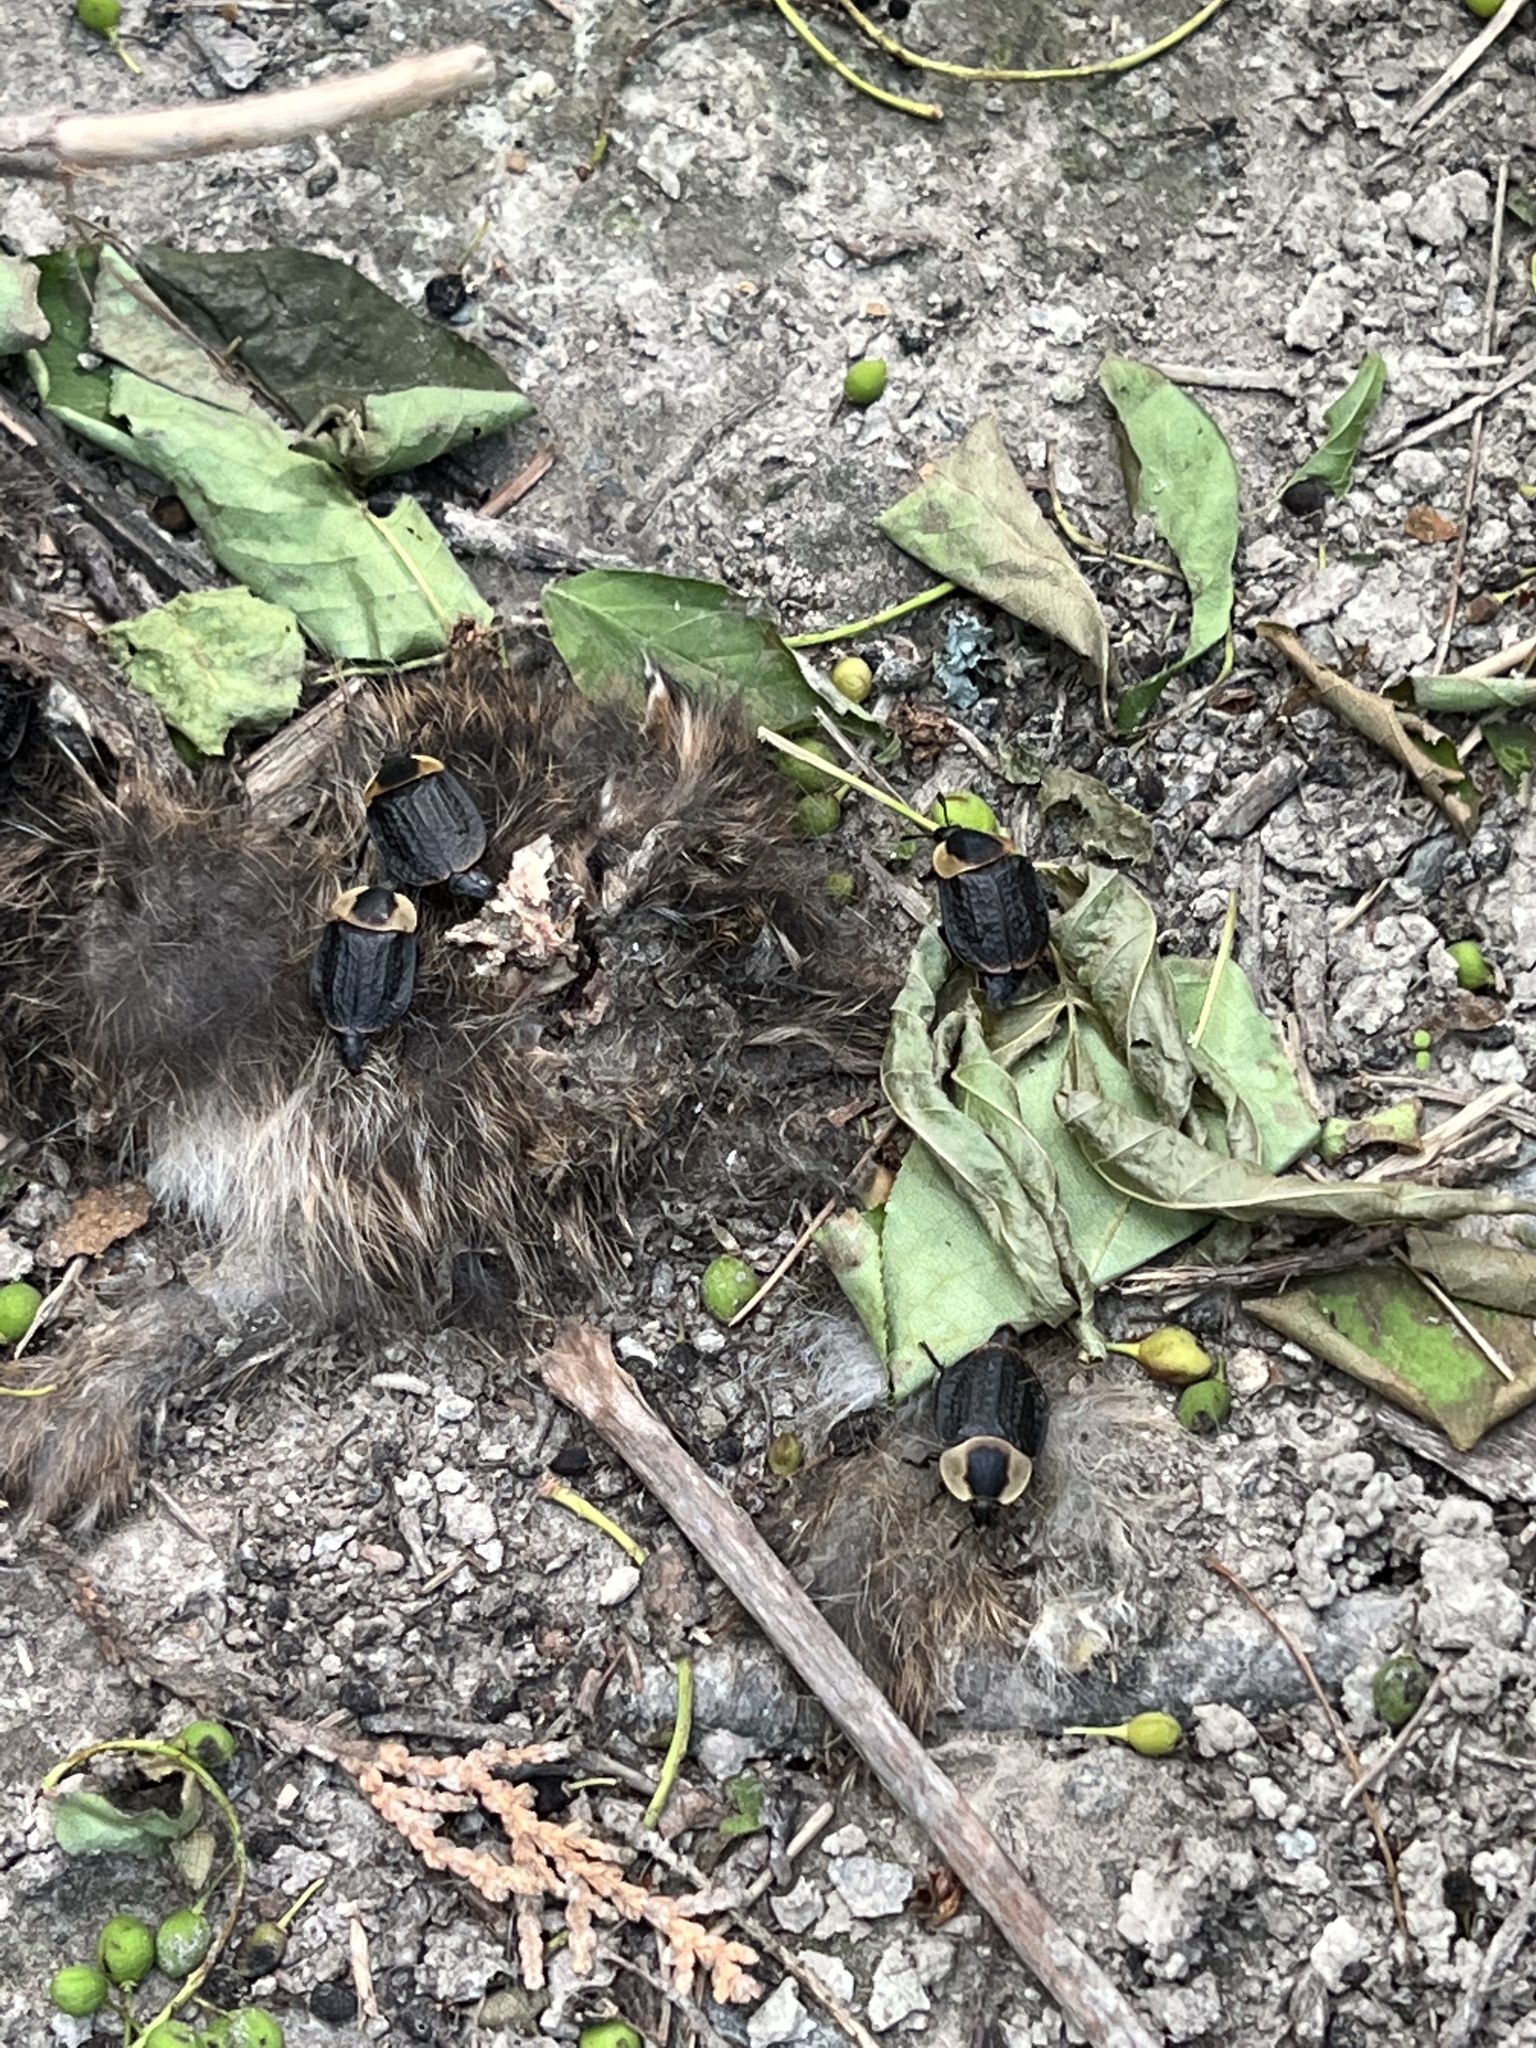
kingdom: Animalia
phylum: Arthropoda
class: Insecta
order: Coleoptera
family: Staphylinidae
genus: Necrophila
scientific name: Necrophila americana
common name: American carrion beetle
